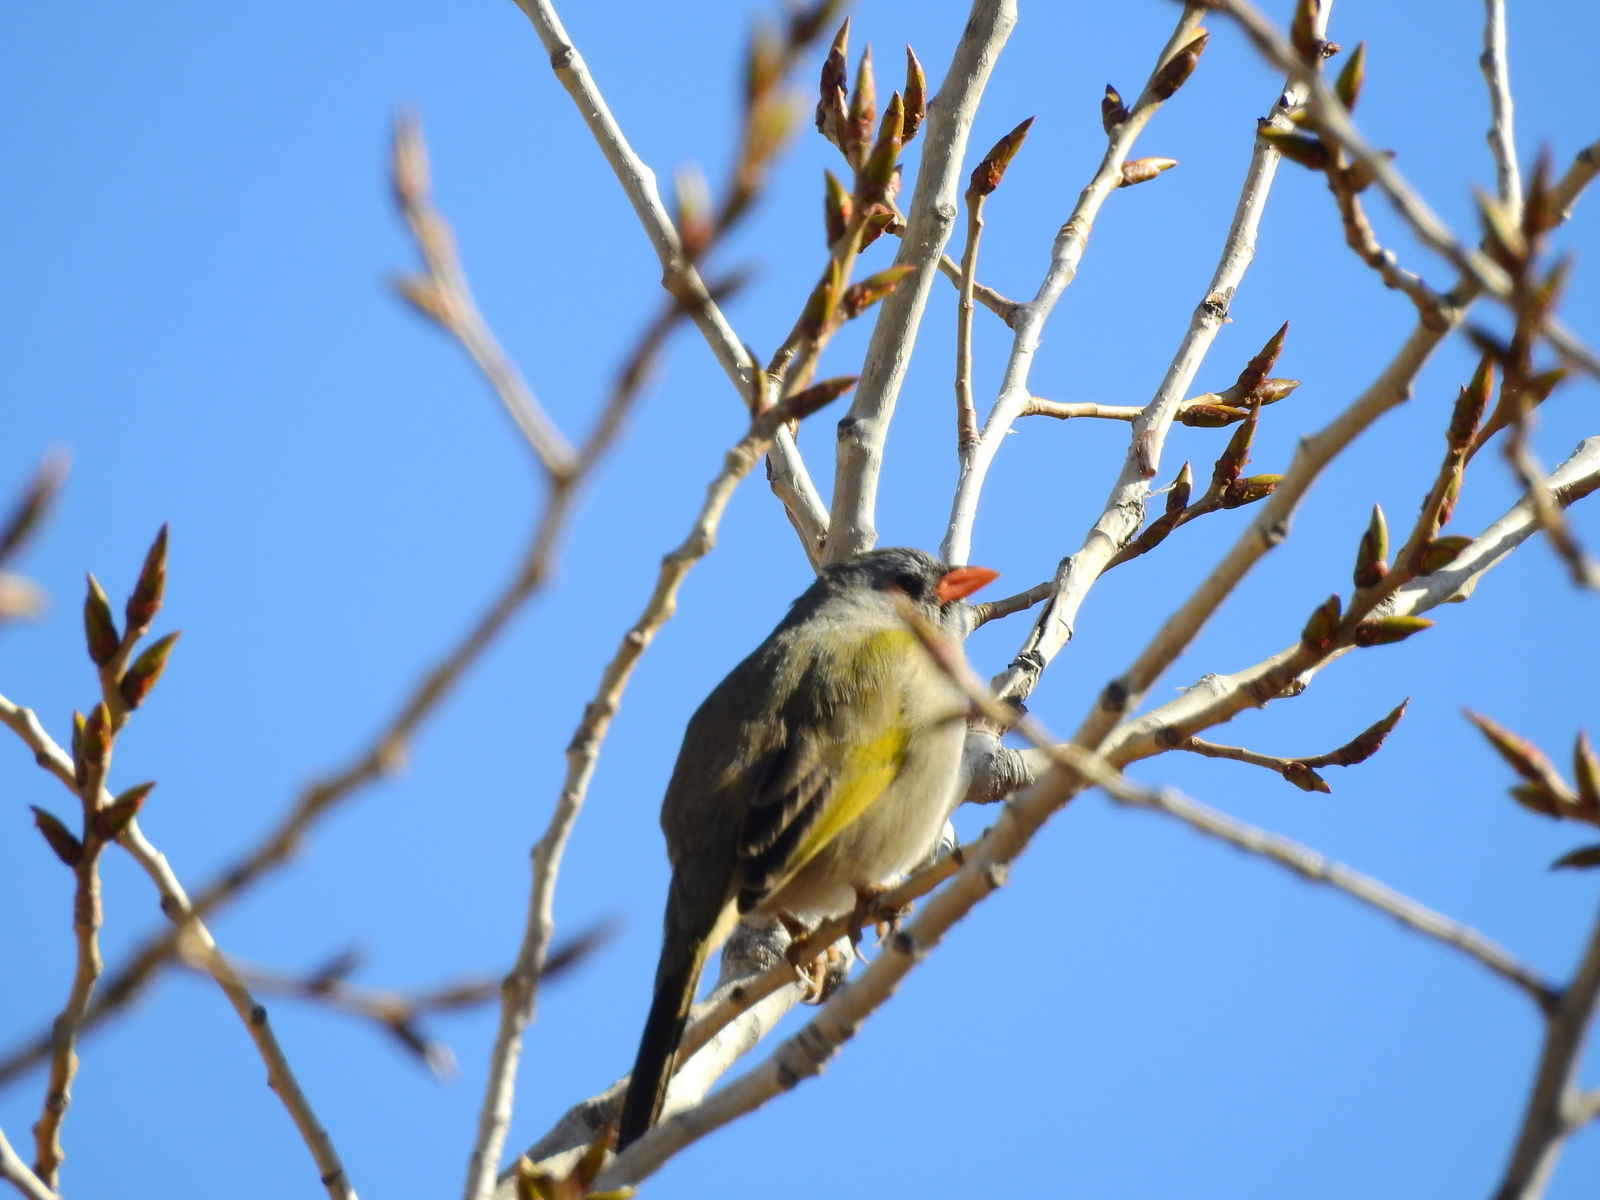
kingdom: Animalia
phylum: Chordata
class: Aves
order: Passeriformes
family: Thraupidae
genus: Embernagra
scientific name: Embernagra platensis
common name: Pampa finch
